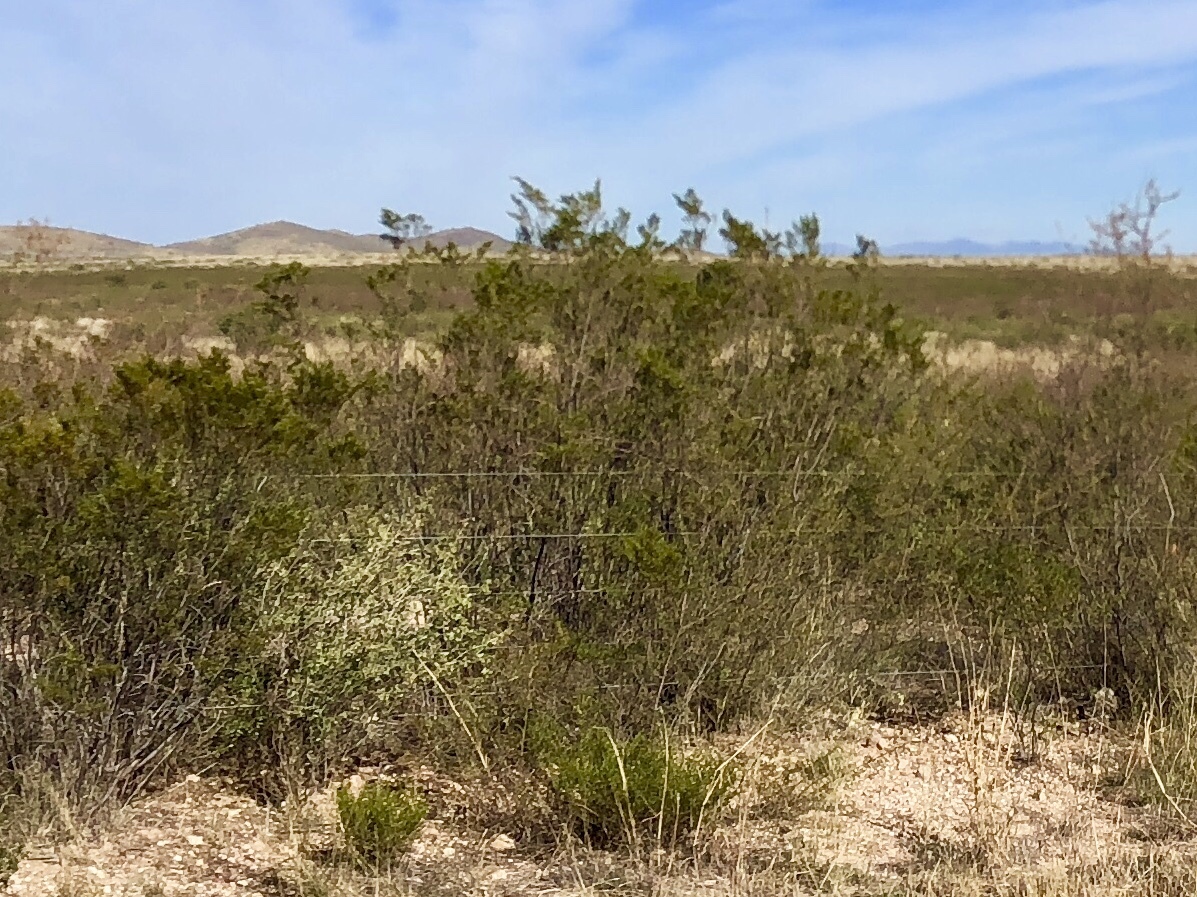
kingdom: Plantae
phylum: Tracheophyta
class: Magnoliopsida
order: Zygophyllales
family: Zygophyllaceae
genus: Larrea
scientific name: Larrea tridentata
